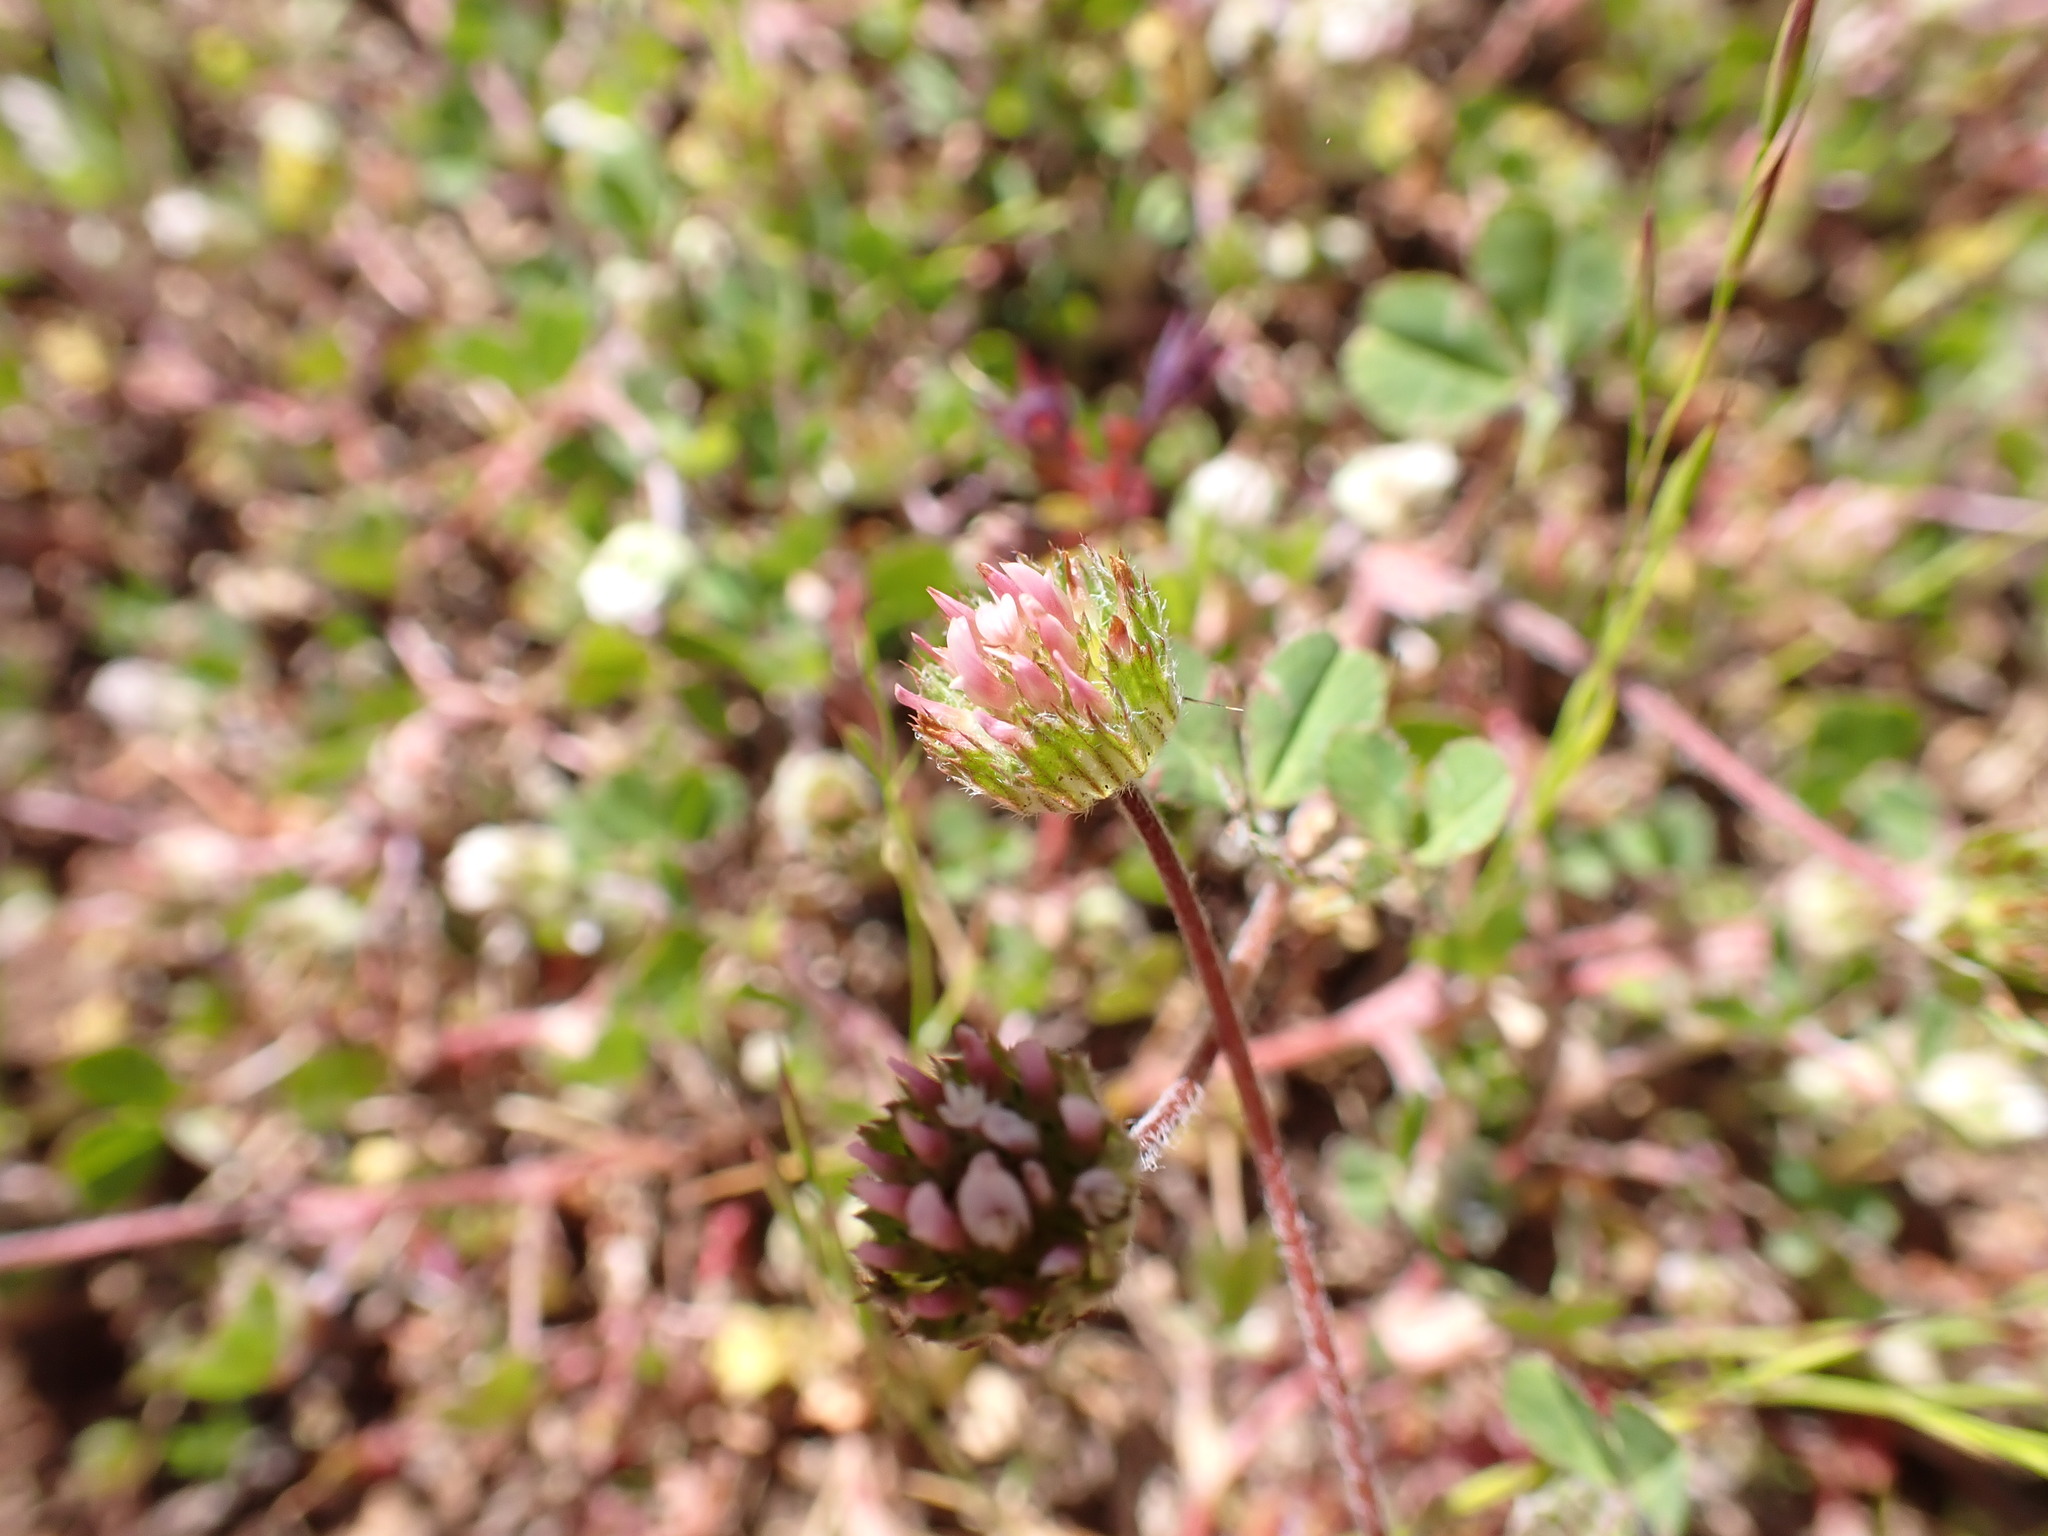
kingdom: Plantae
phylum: Tracheophyta
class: Magnoliopsida
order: Fabales
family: Fabaceae
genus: Trifolium
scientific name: Trifolium microdon
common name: Thimble clover
